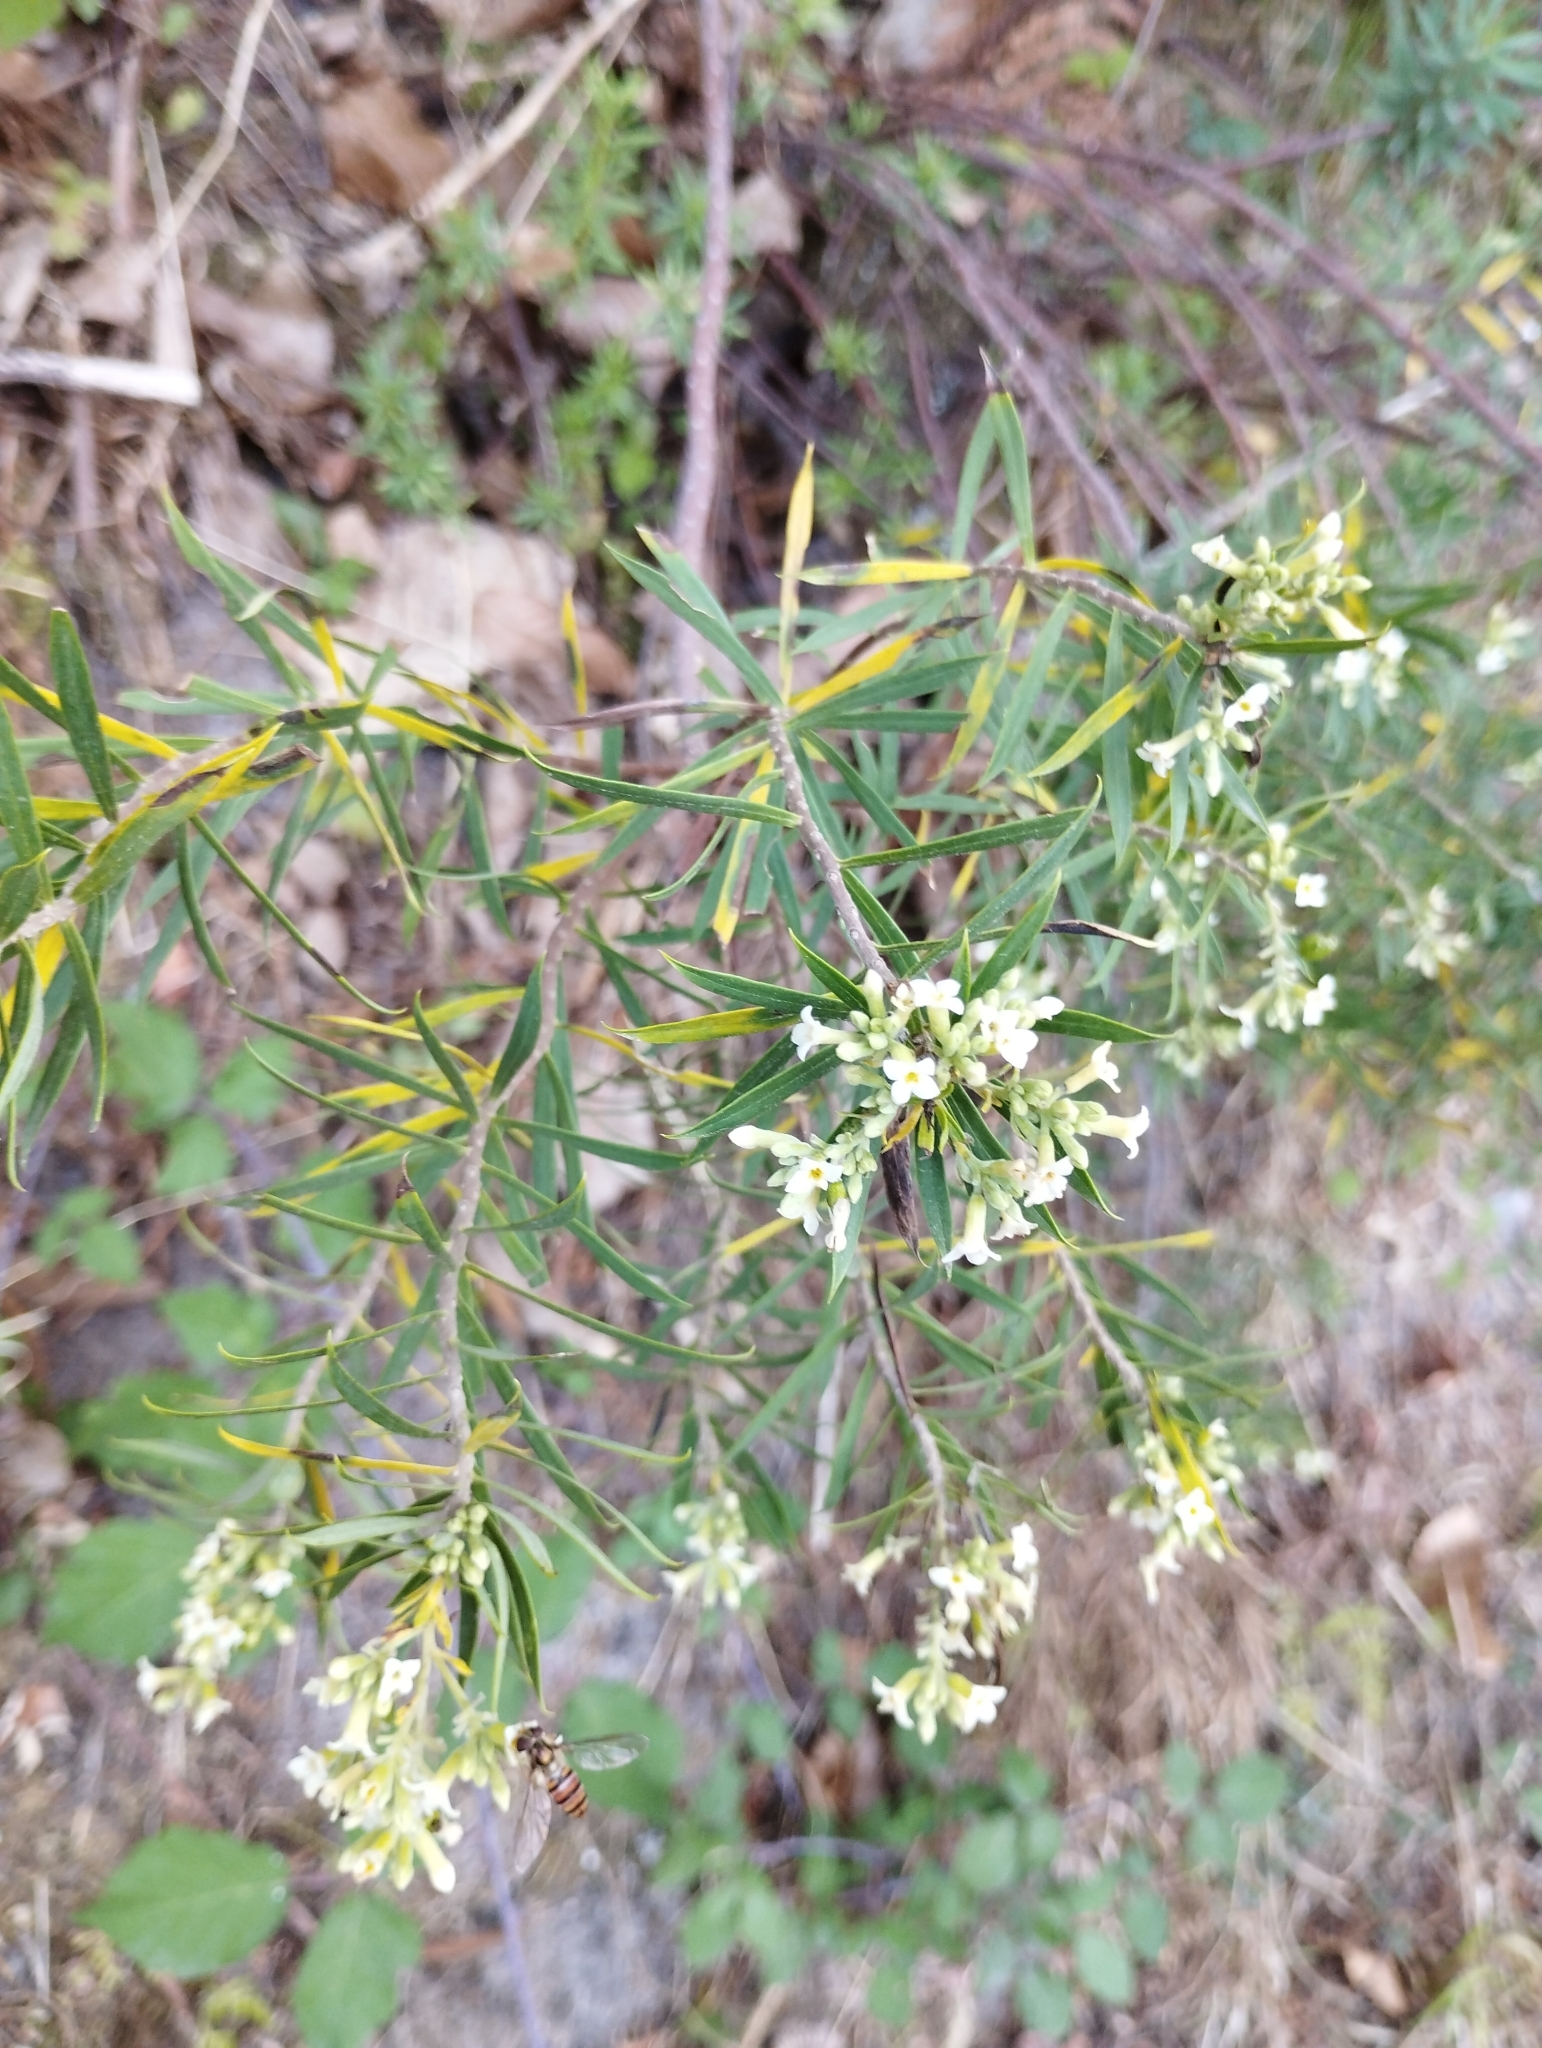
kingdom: Plantae
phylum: Tracheophyta
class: Magnoliopsida
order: Malvales
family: Thymelaeaceae
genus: Daphne
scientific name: Daphne gnidium
